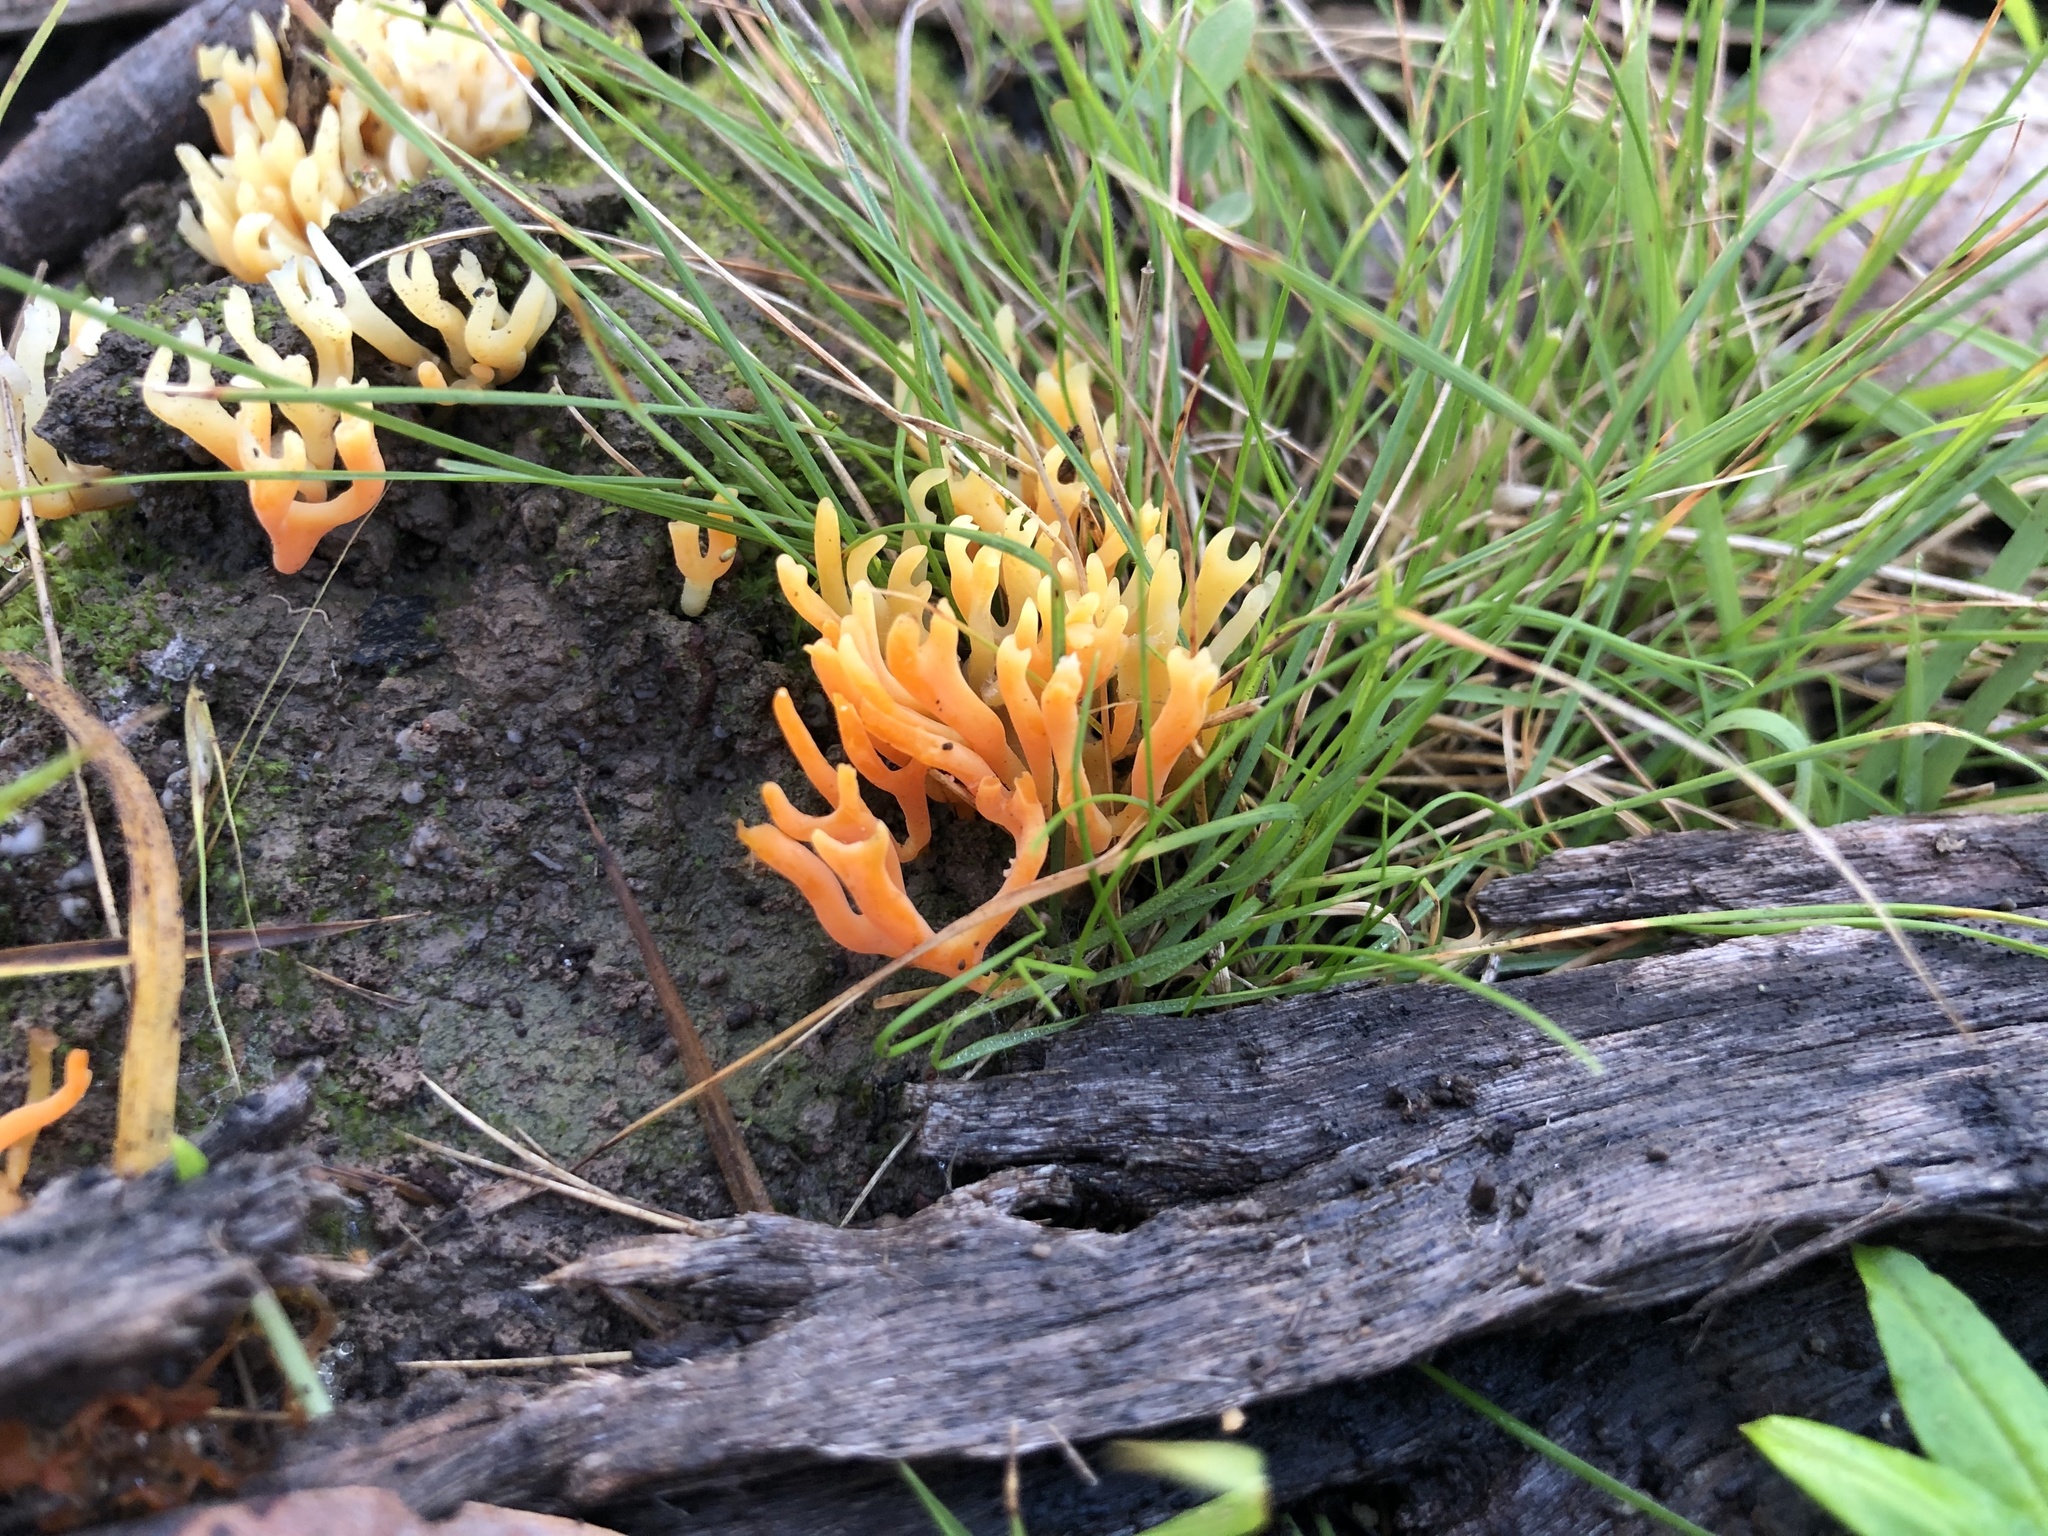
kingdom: Fungi
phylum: Basidiomycota
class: Agaricomycetes
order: Agaricales
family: Clavariaceae
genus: Ramariopsis
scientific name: Ramariopsis crocea
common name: Orange coral
